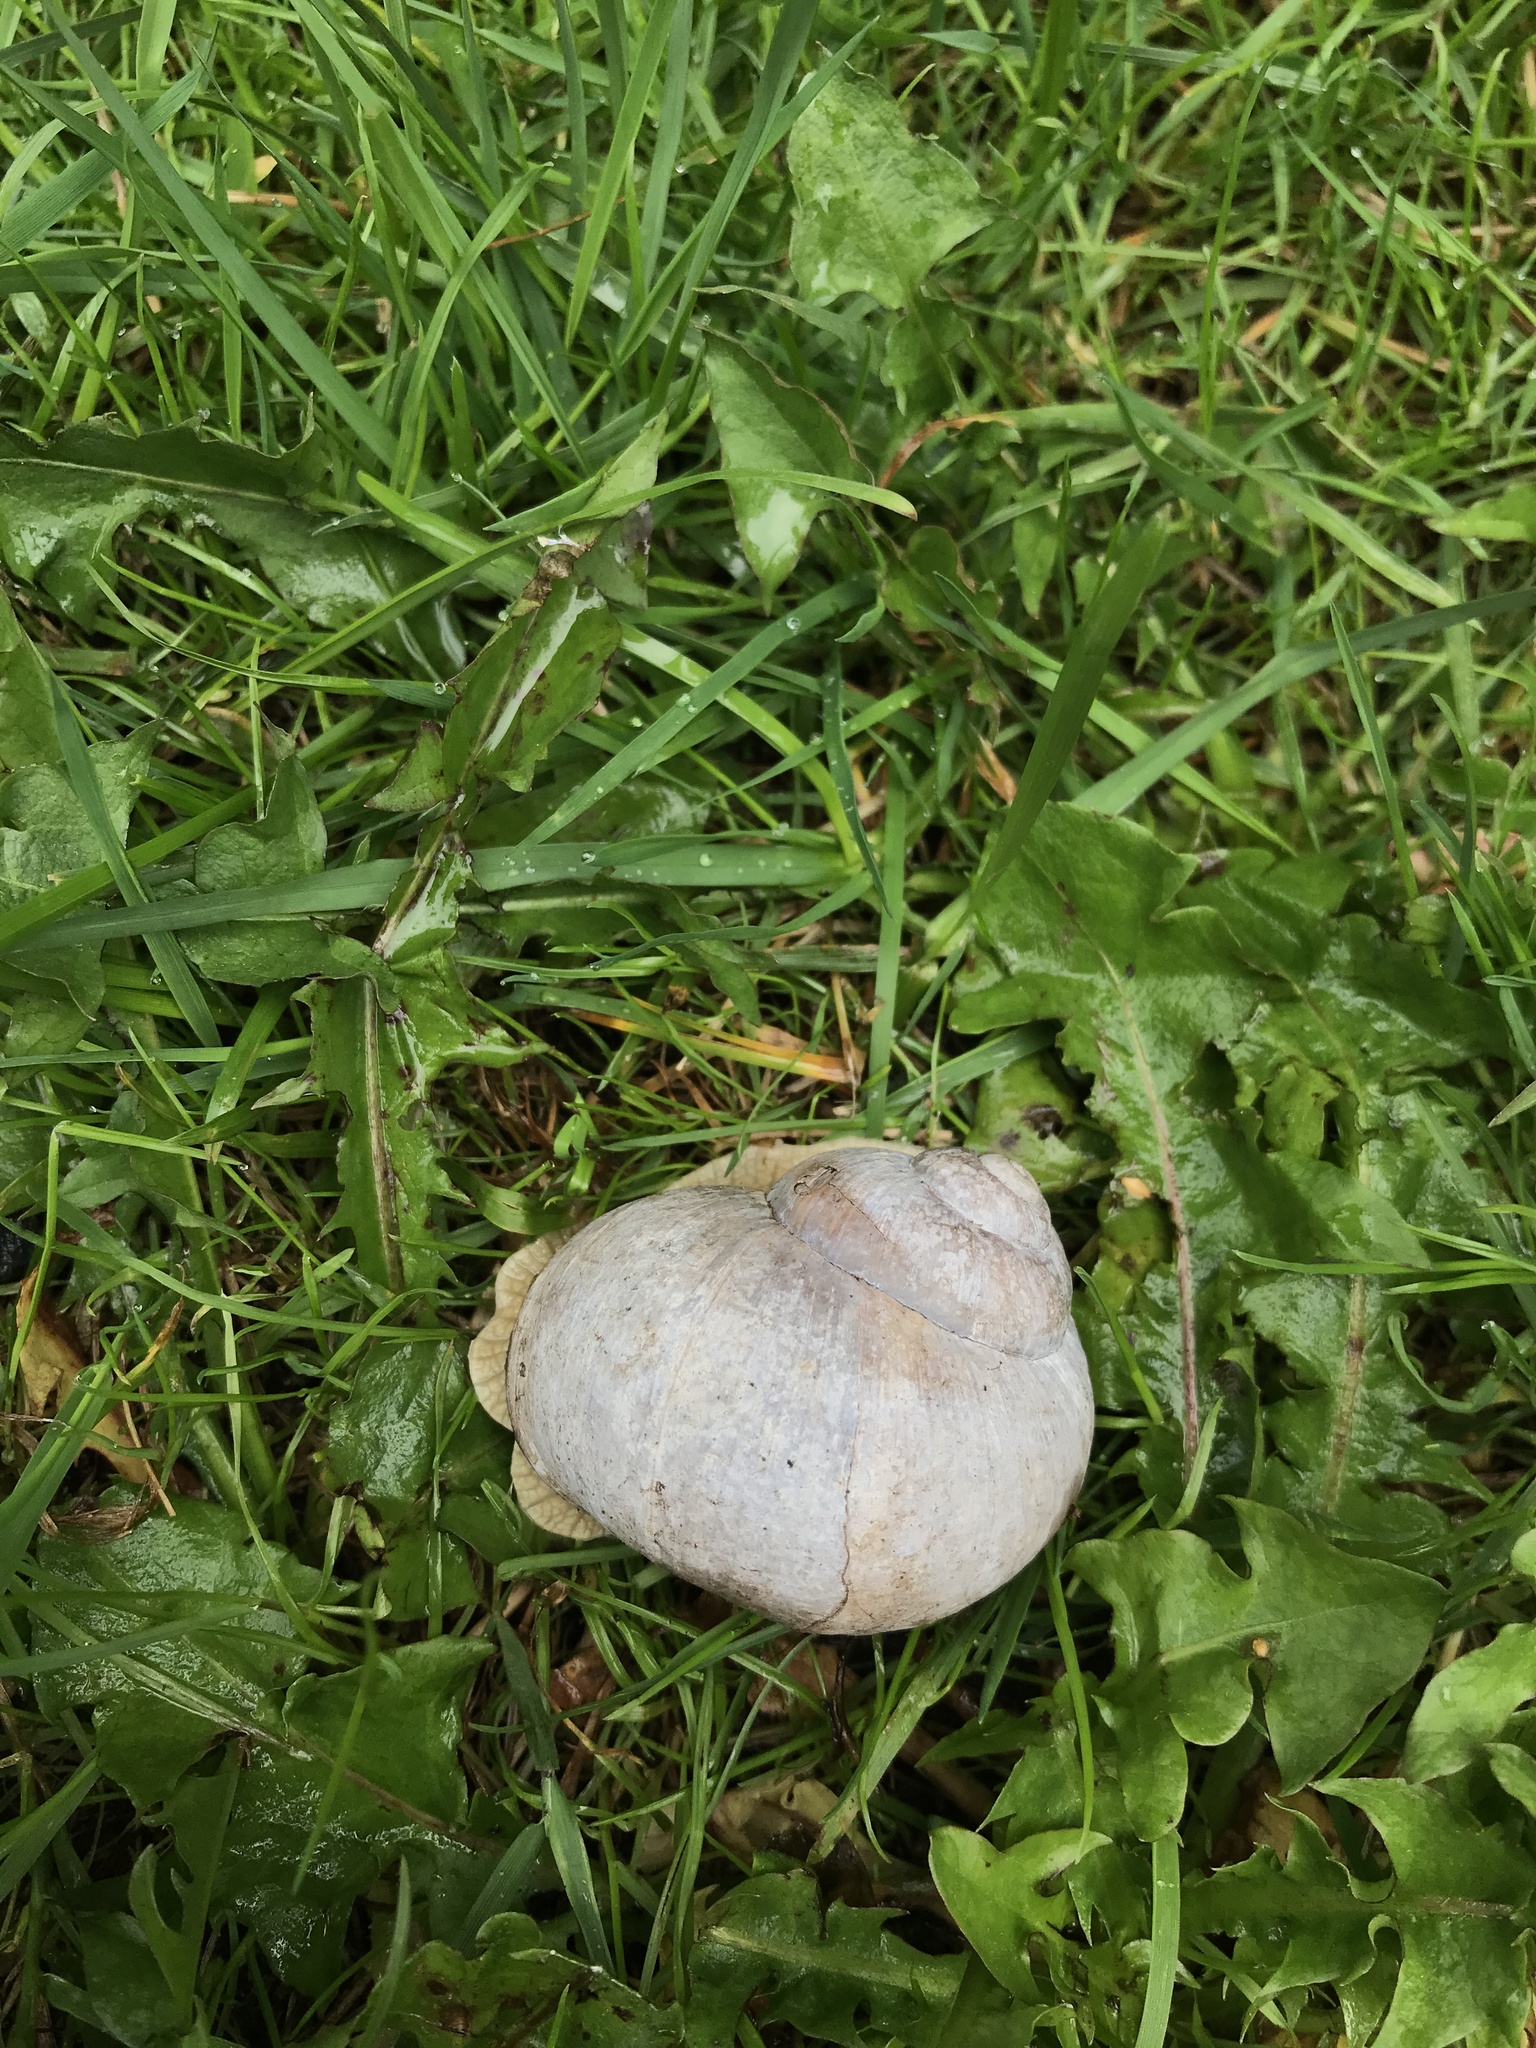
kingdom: Animalia
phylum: Mollusca
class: Gastropoda
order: Stylommatophora
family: Helicidae
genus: Helix
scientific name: Helix pomatia
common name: Roman snail
